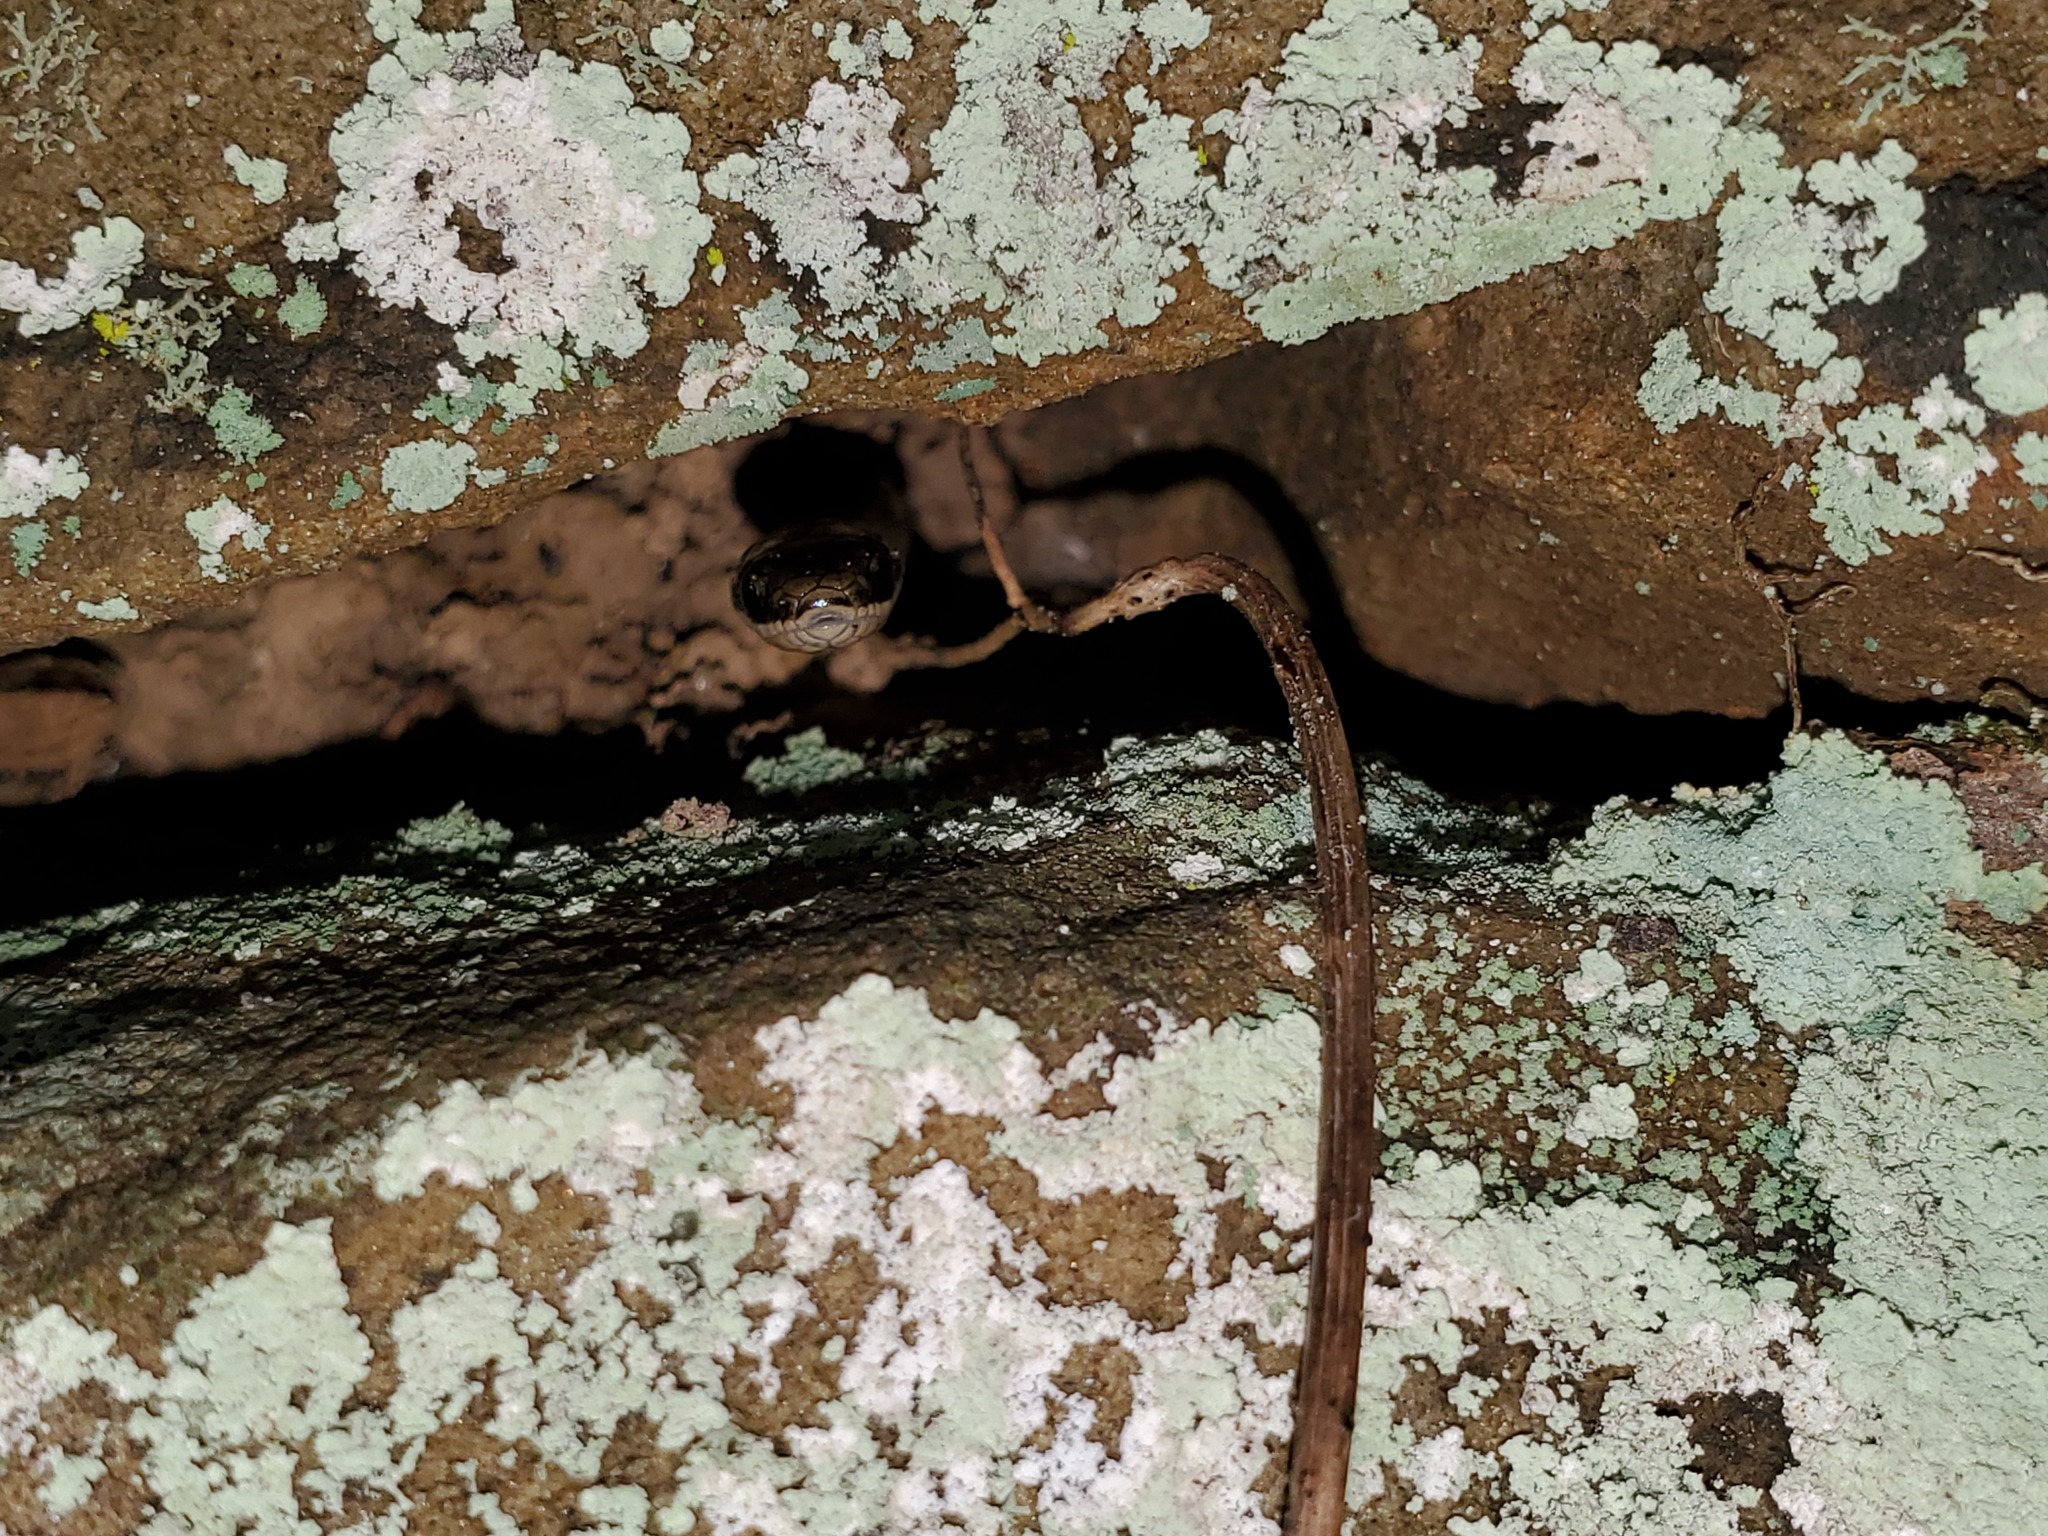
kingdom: Animalia
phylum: Chordata
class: Squamata
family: Colubridae
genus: Diadophis
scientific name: Diadophis punctatus
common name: Ringneck snake
